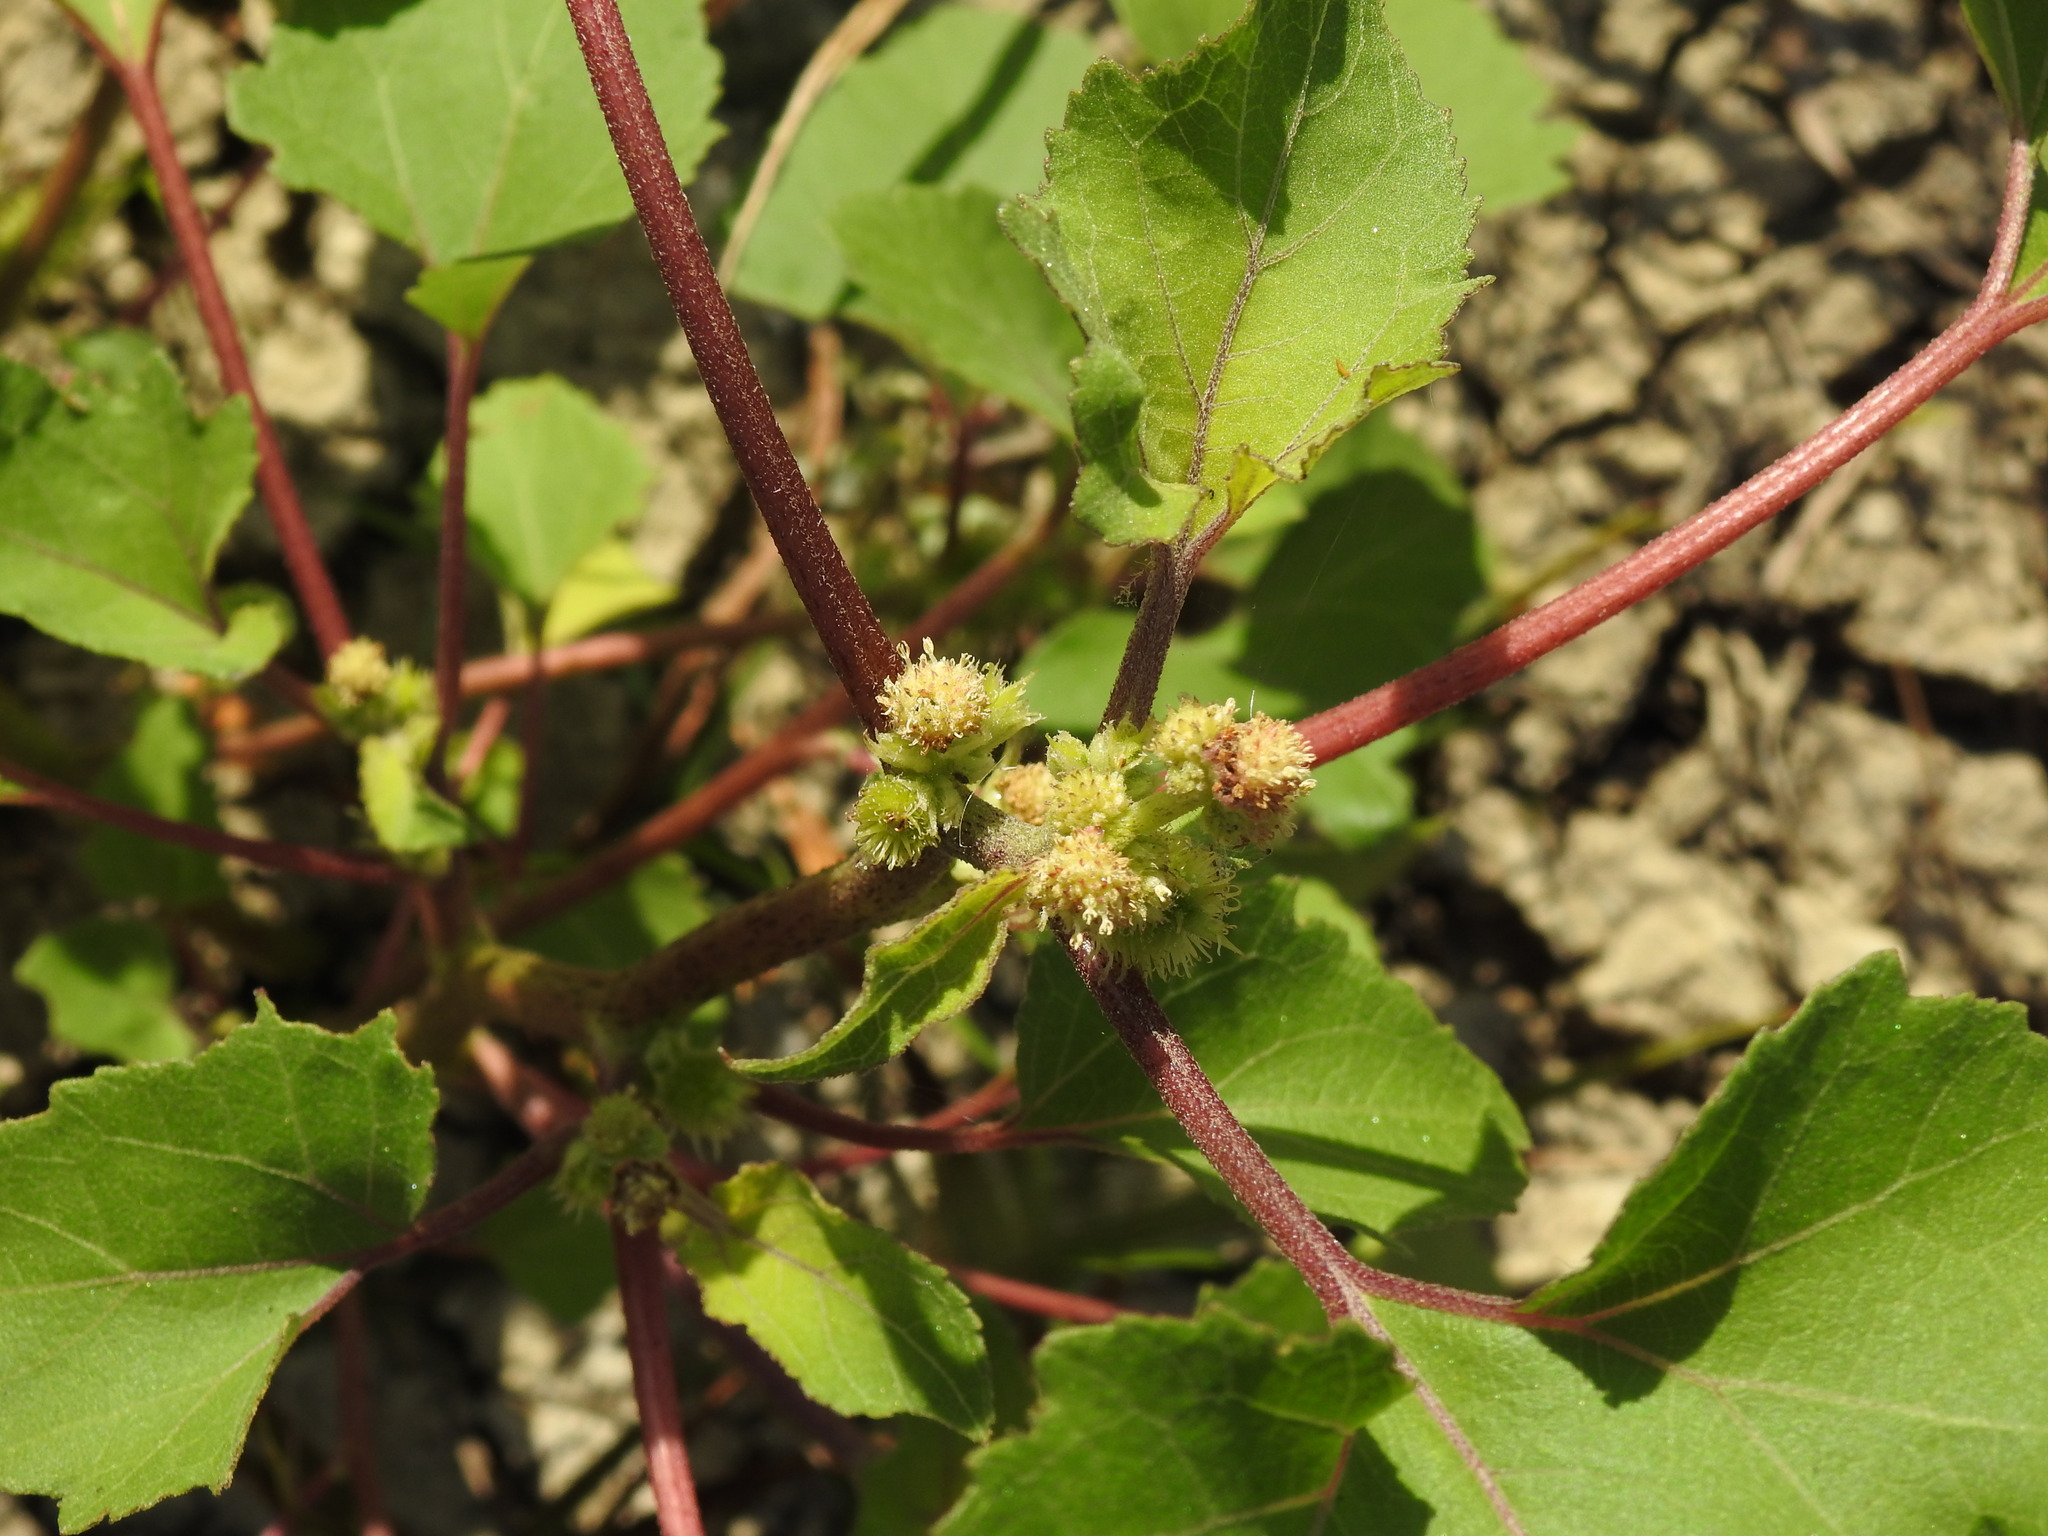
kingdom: Plantae
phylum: Tracheophyta
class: Magnoliopsida
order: Asterales
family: Asteraceae
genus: Xanthium
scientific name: Xanthium orientale
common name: Californian burr
